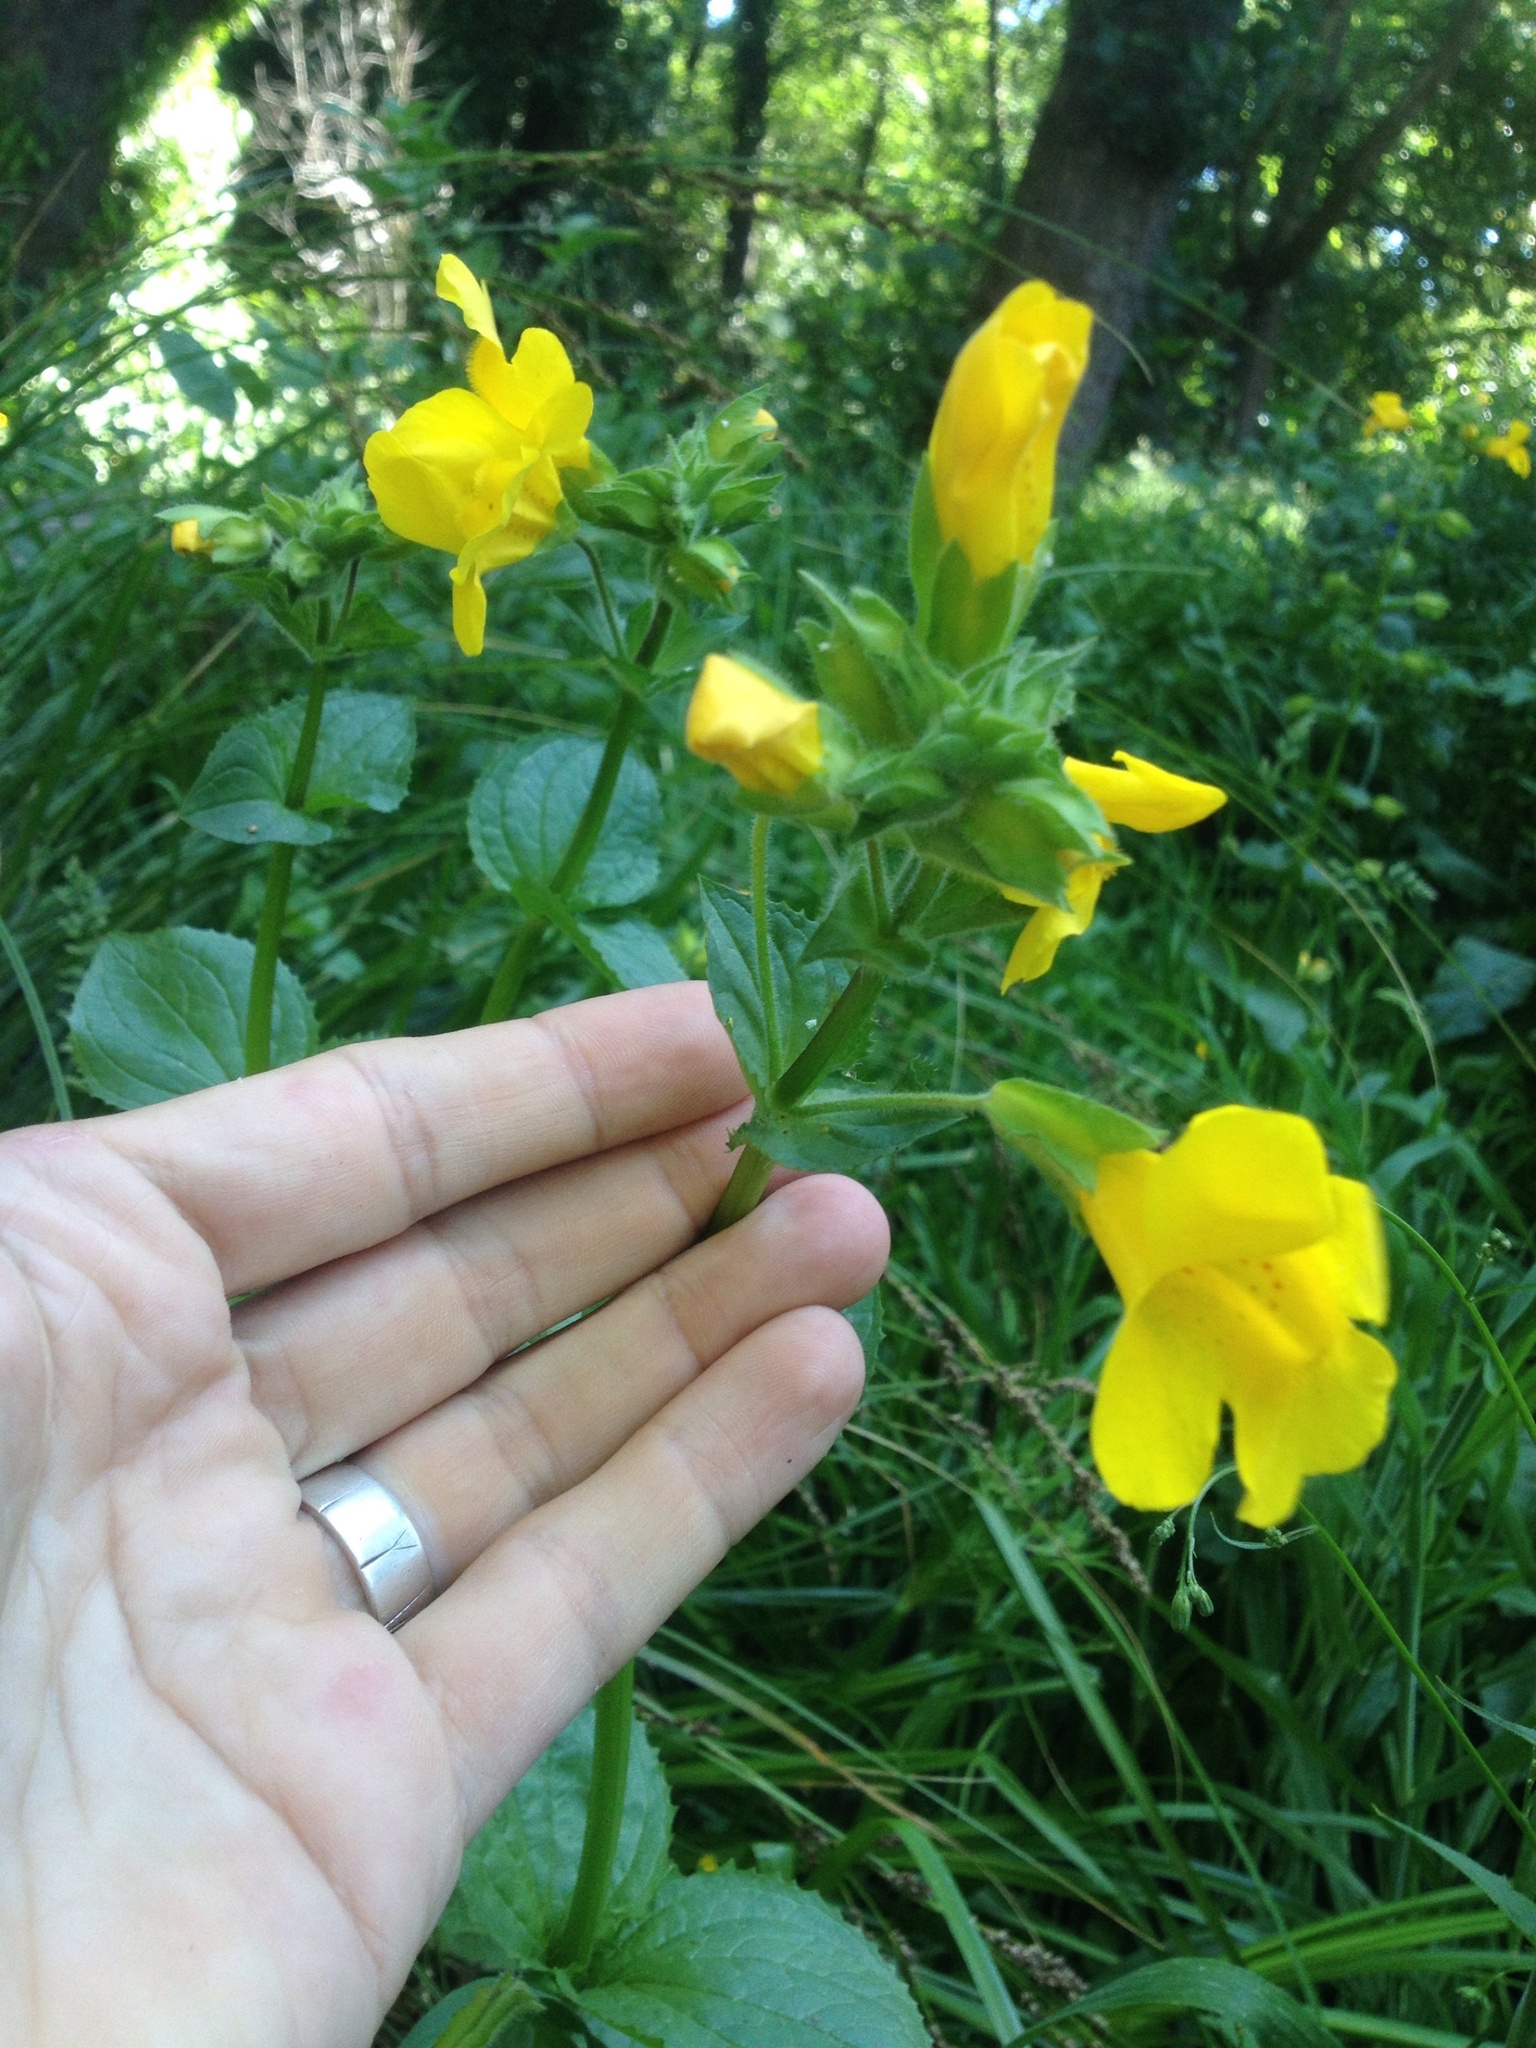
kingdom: Plantae
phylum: Tracheophyta
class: Magnoliopsida
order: Lamiales
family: Phrymaceae
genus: Erythranthe
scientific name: Erythranthe guttata
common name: Monkeyflower
